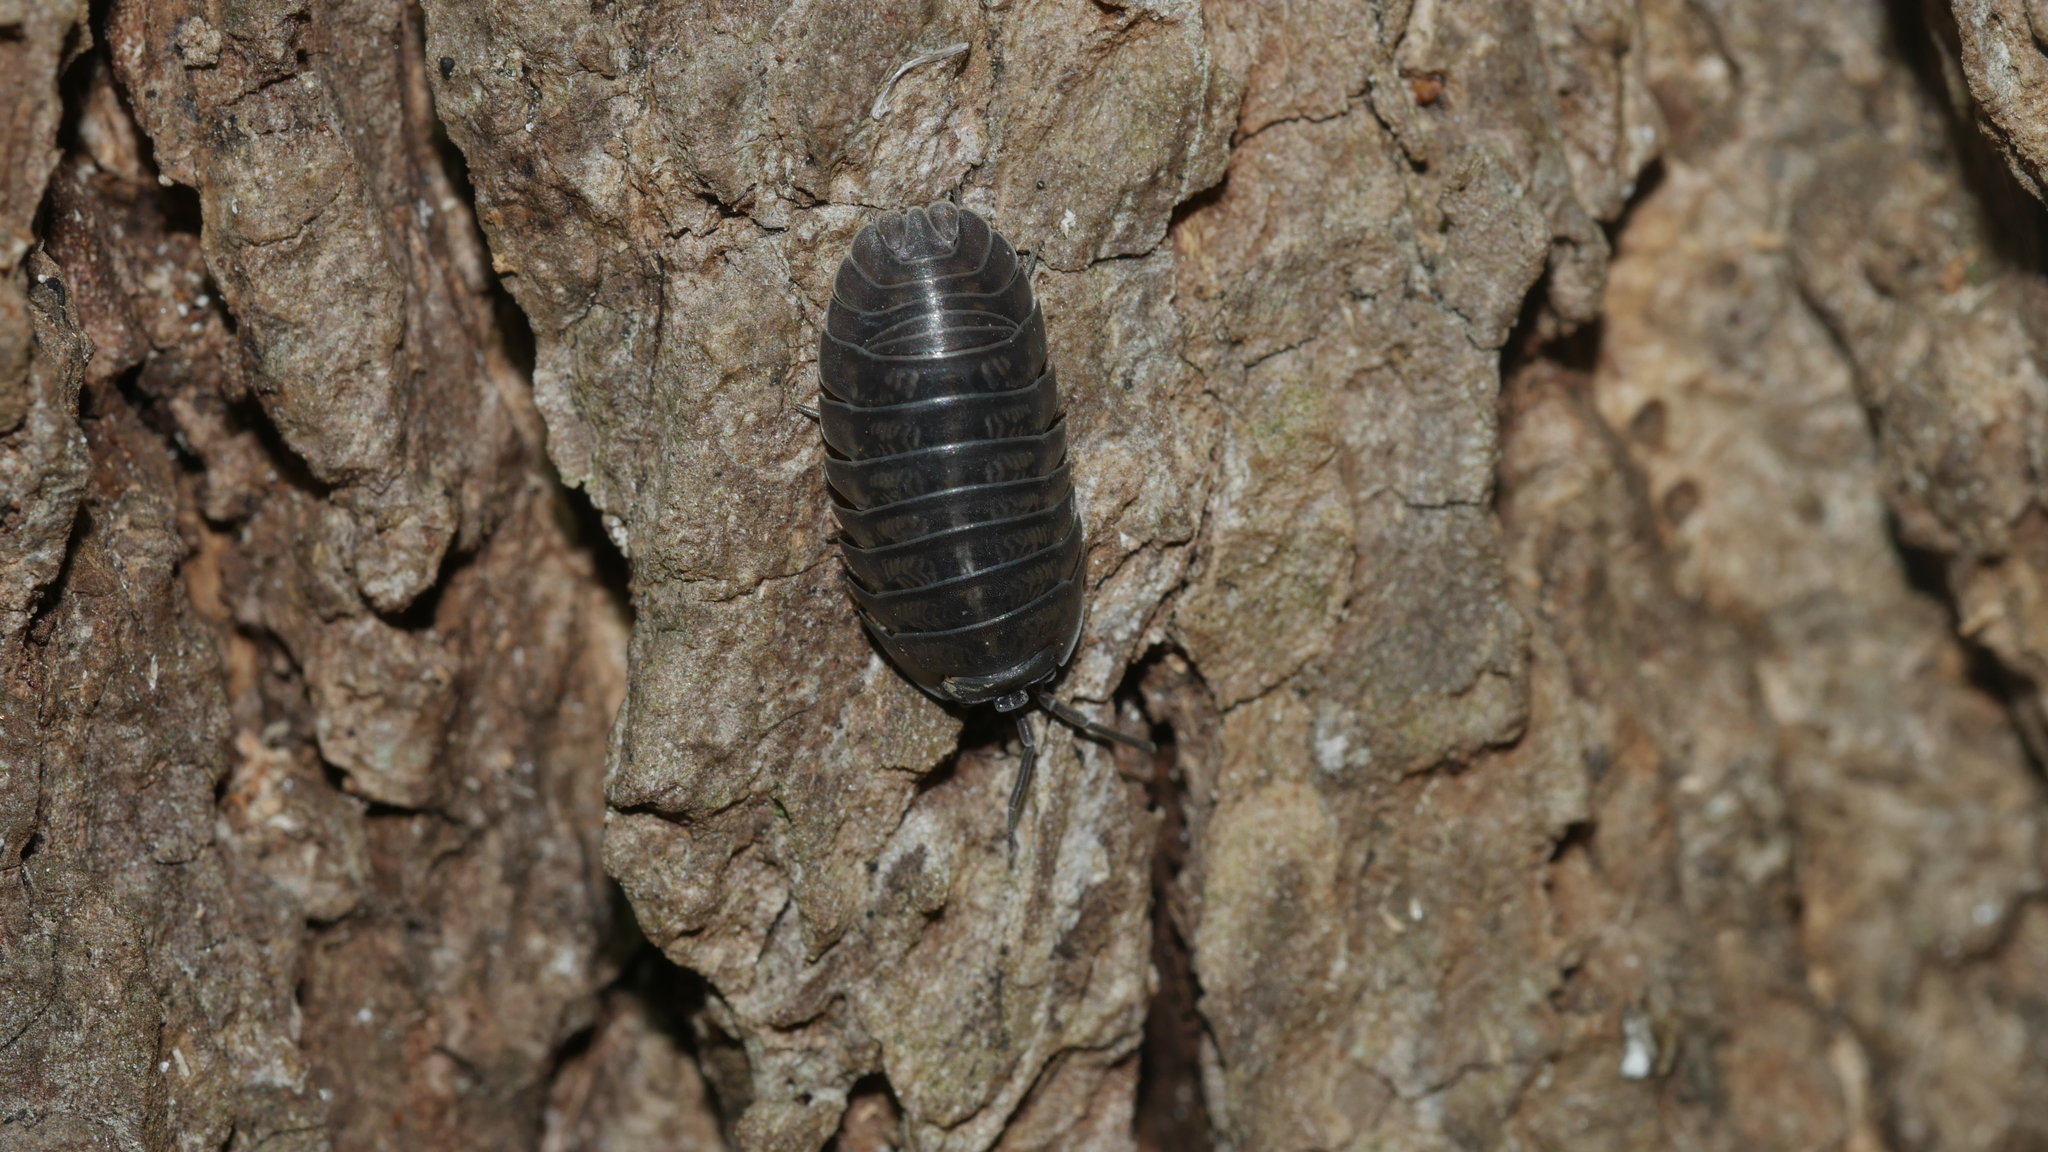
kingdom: Animalia
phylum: Arthropoda
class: Malacostraca
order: Isopoda
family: Armadillidiidae
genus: Armadillidium
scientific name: Armadillidium nasatum
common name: Isopod
